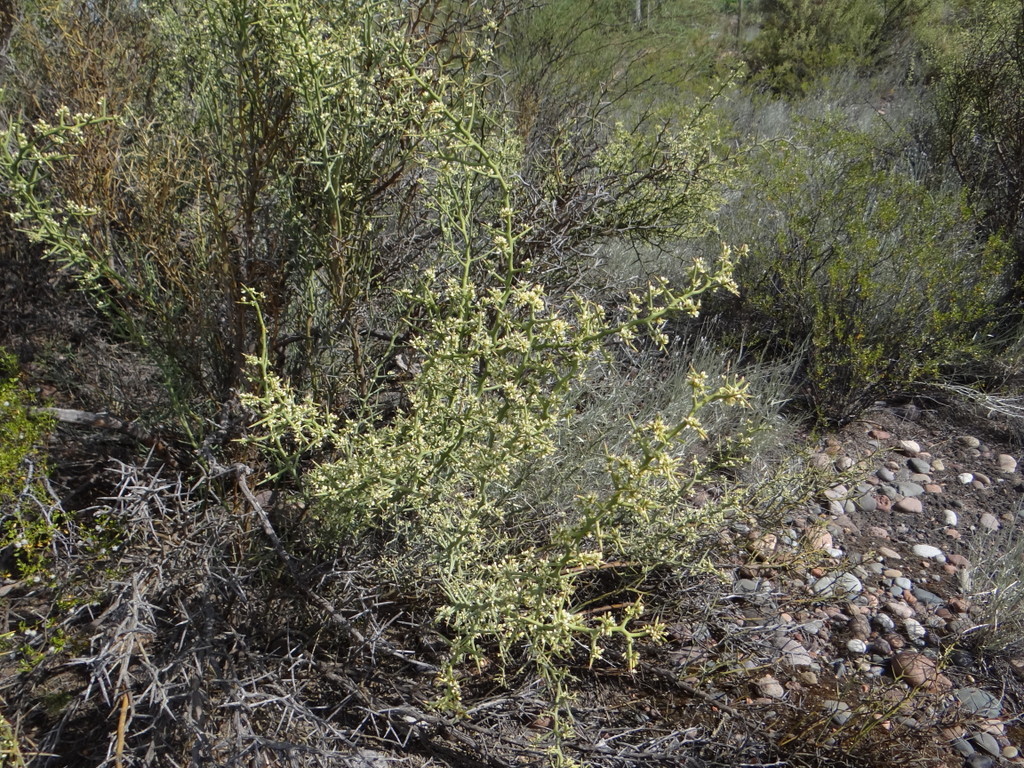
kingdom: Plantae
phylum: Tracheophyta
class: Magnoliopsida
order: Fabales
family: Polygalaceae
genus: Bredemeyera
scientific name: Bredemeyera colletioides
